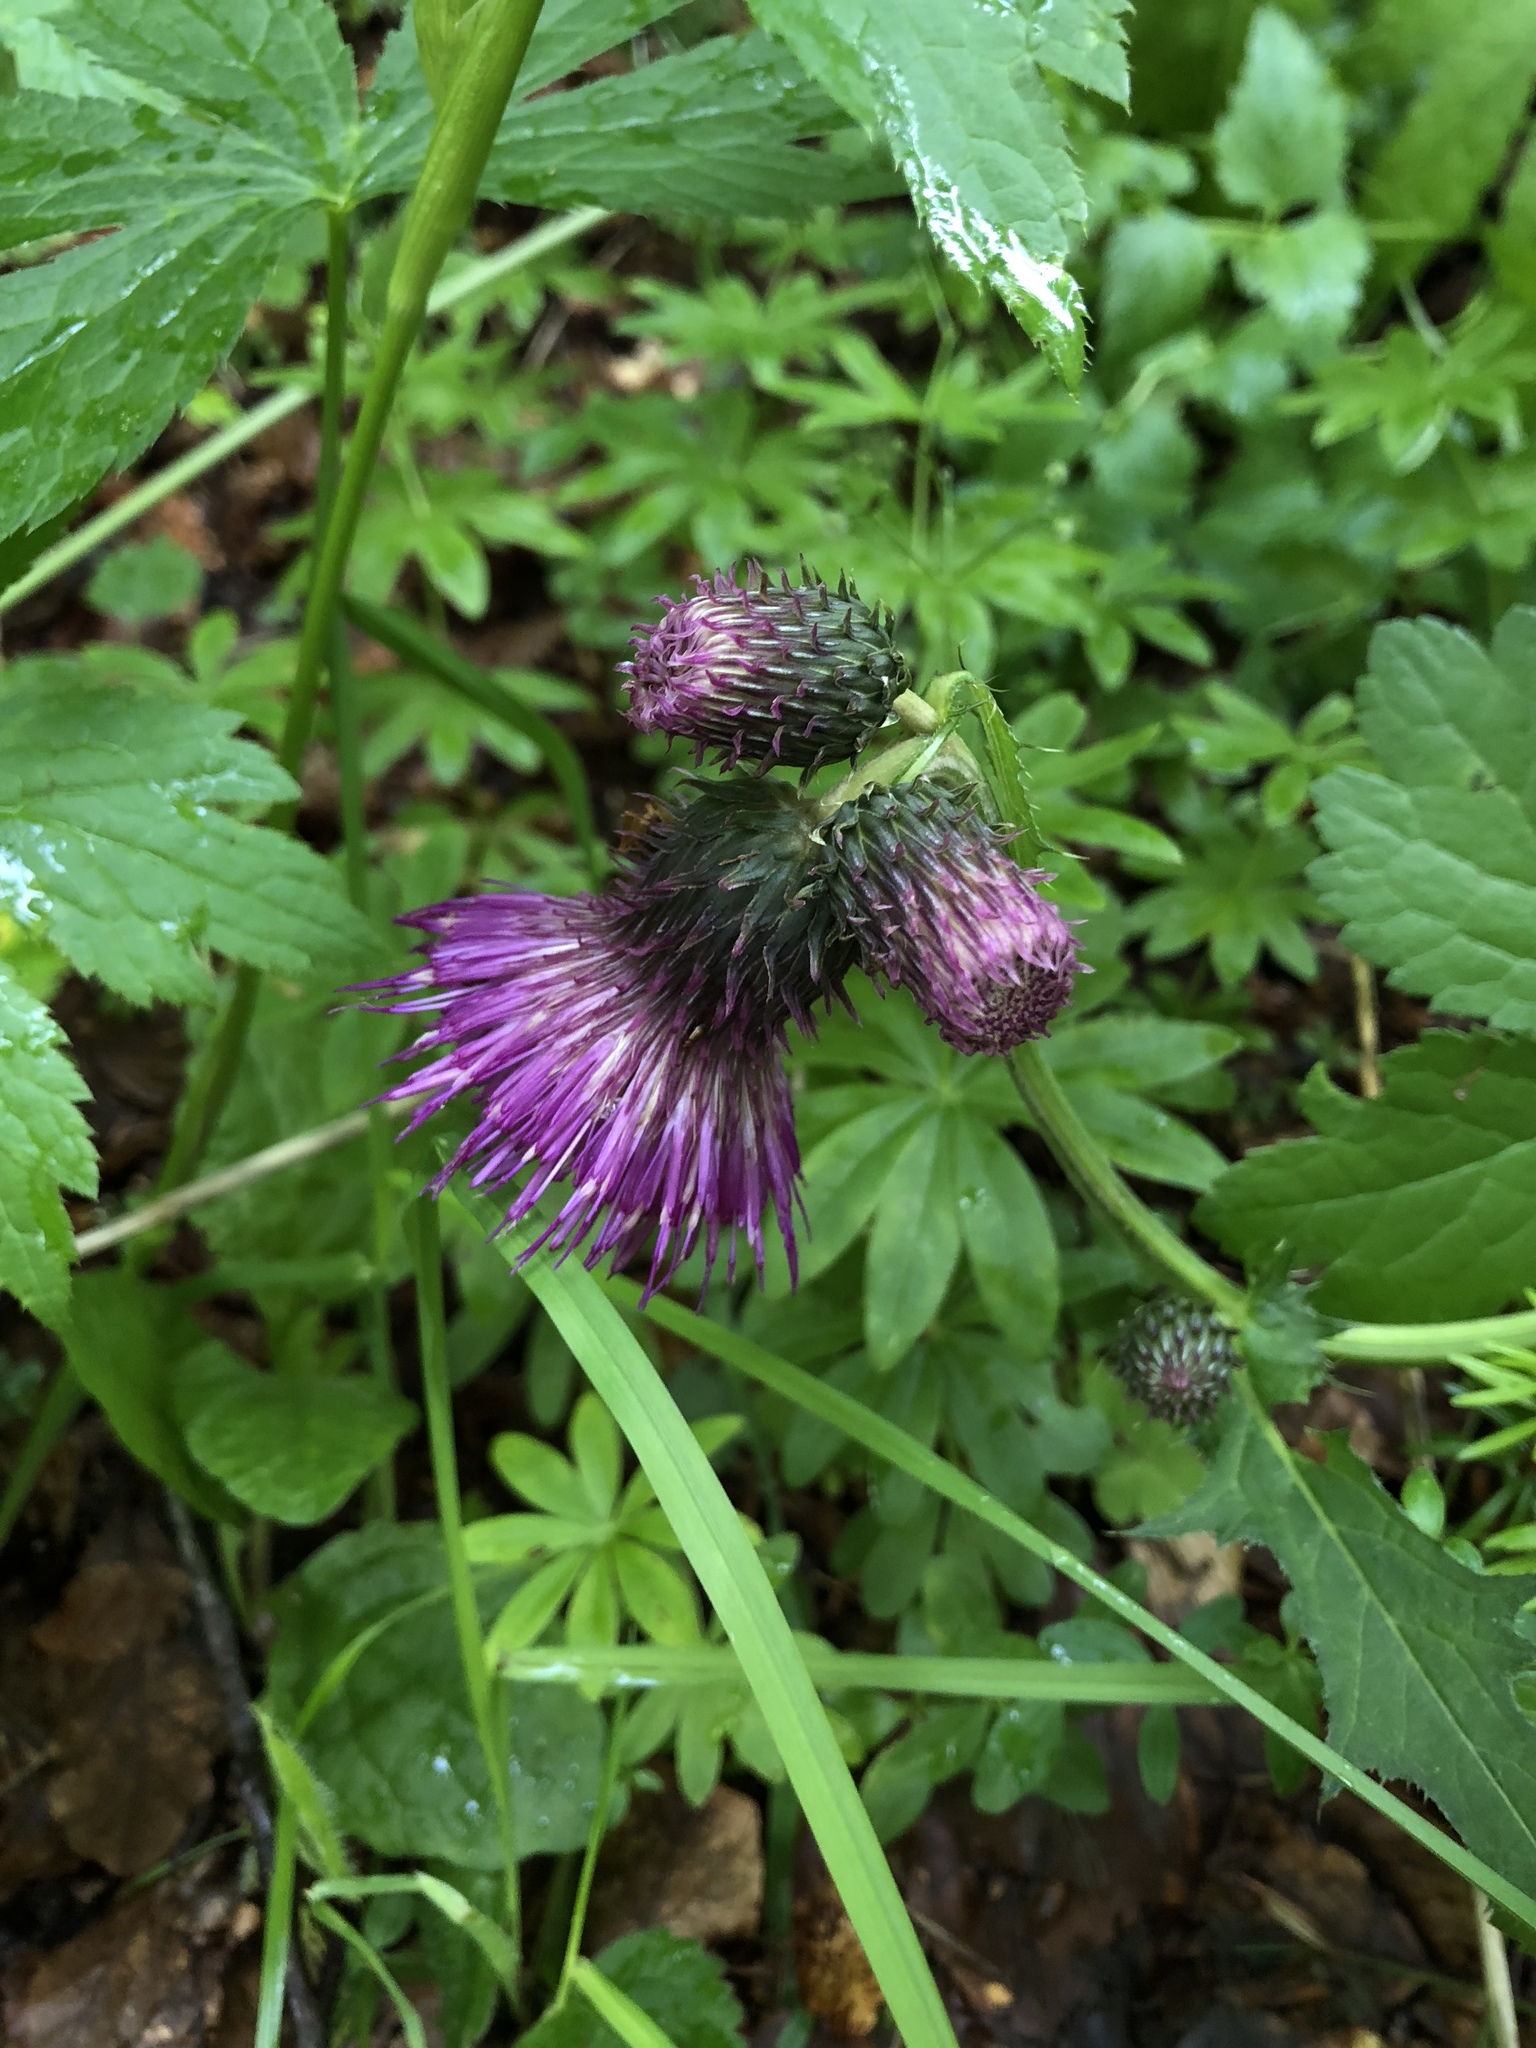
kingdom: Plantae
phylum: Tracheophyta
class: Magnoliopsida
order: Asterales
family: Asteraceae
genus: Cirsium
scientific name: Cirsium waldsteinii
